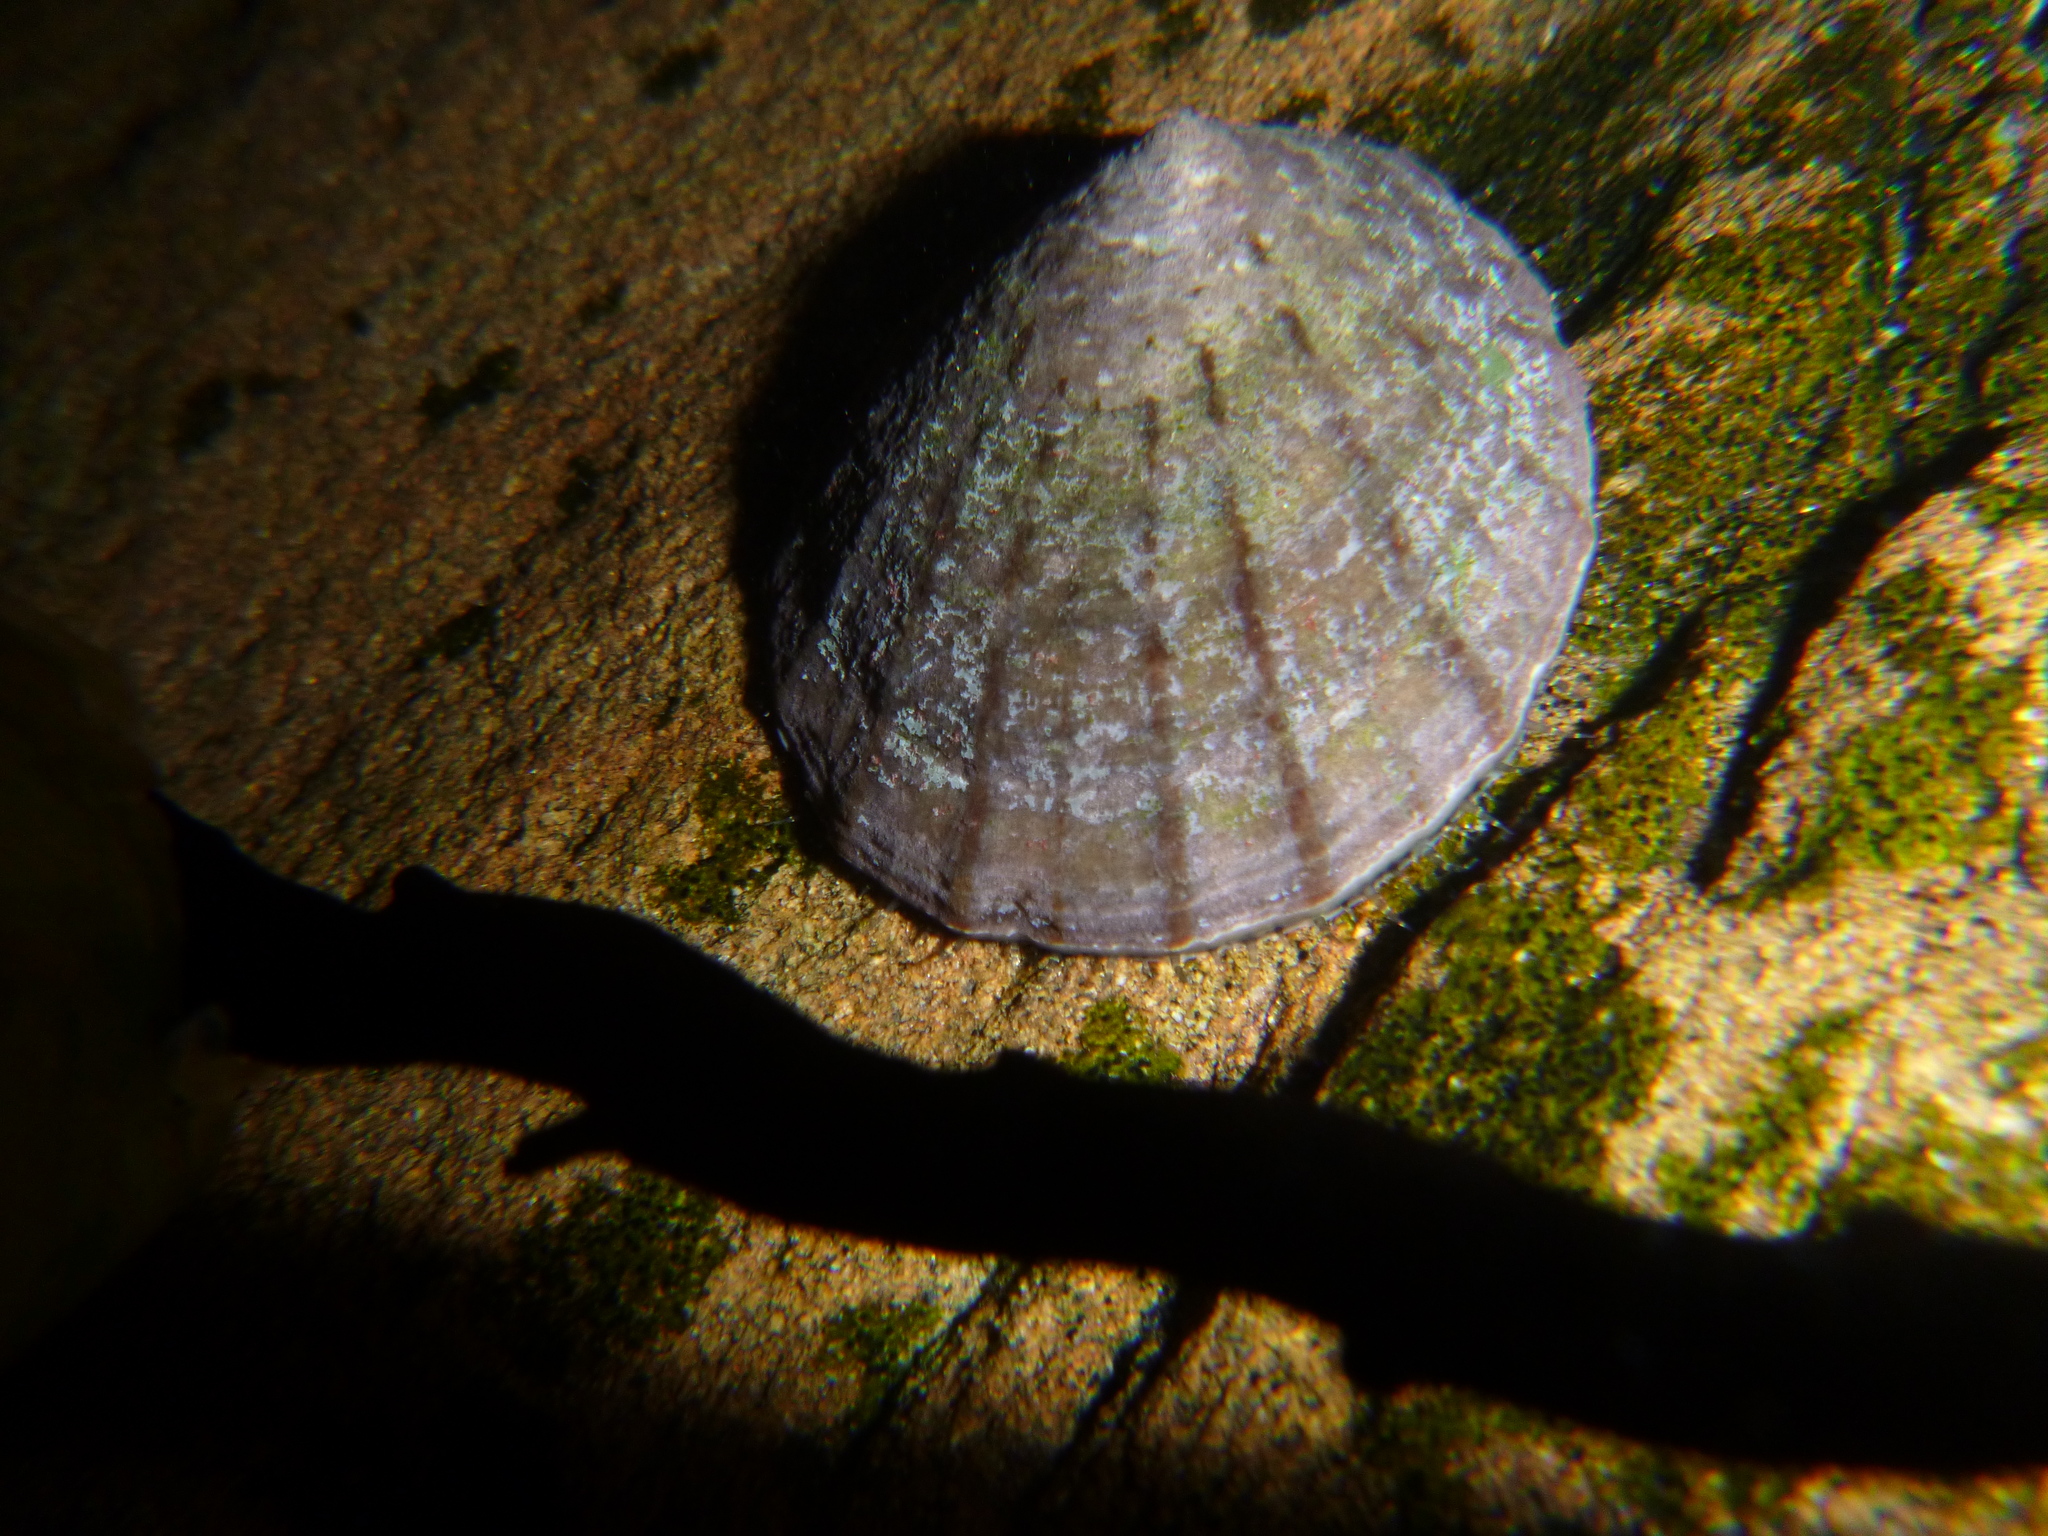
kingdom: Animalia
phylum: Mollusca
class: Gastropoda
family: Nacellidae
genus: Cellana
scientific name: Cellana radians
